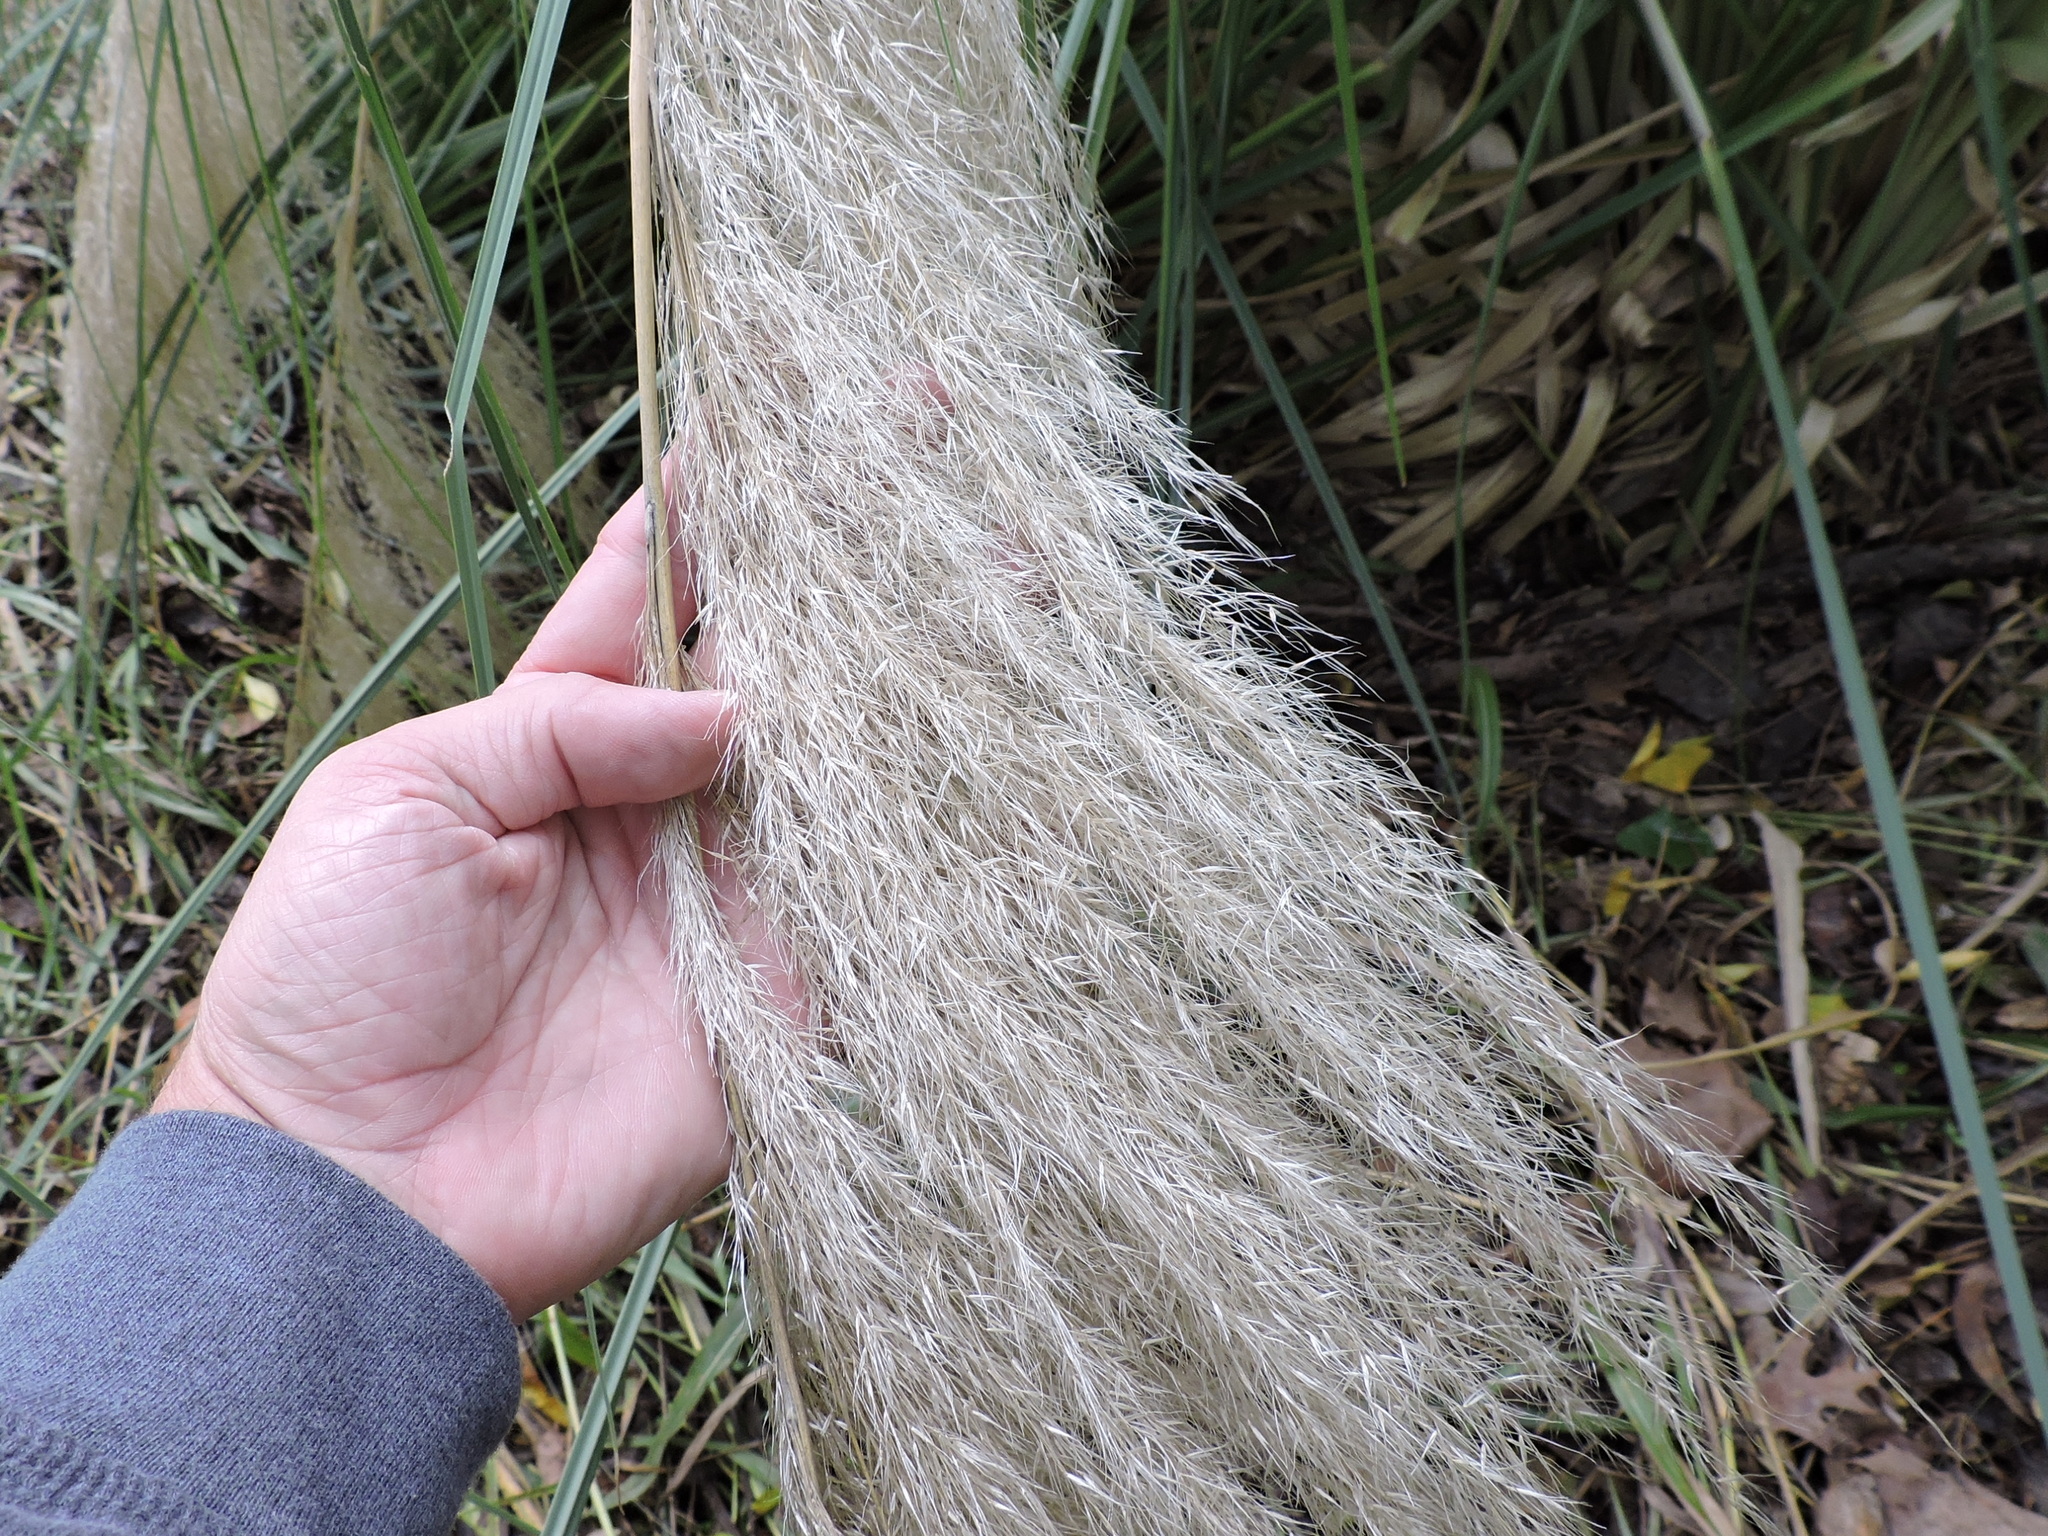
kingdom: Plantae
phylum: Tracheophyta
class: Liliopsida
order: Poales
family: Poaceae
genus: Cortaderia
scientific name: Cortaderia selloana
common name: Uruguayan pampas grass
